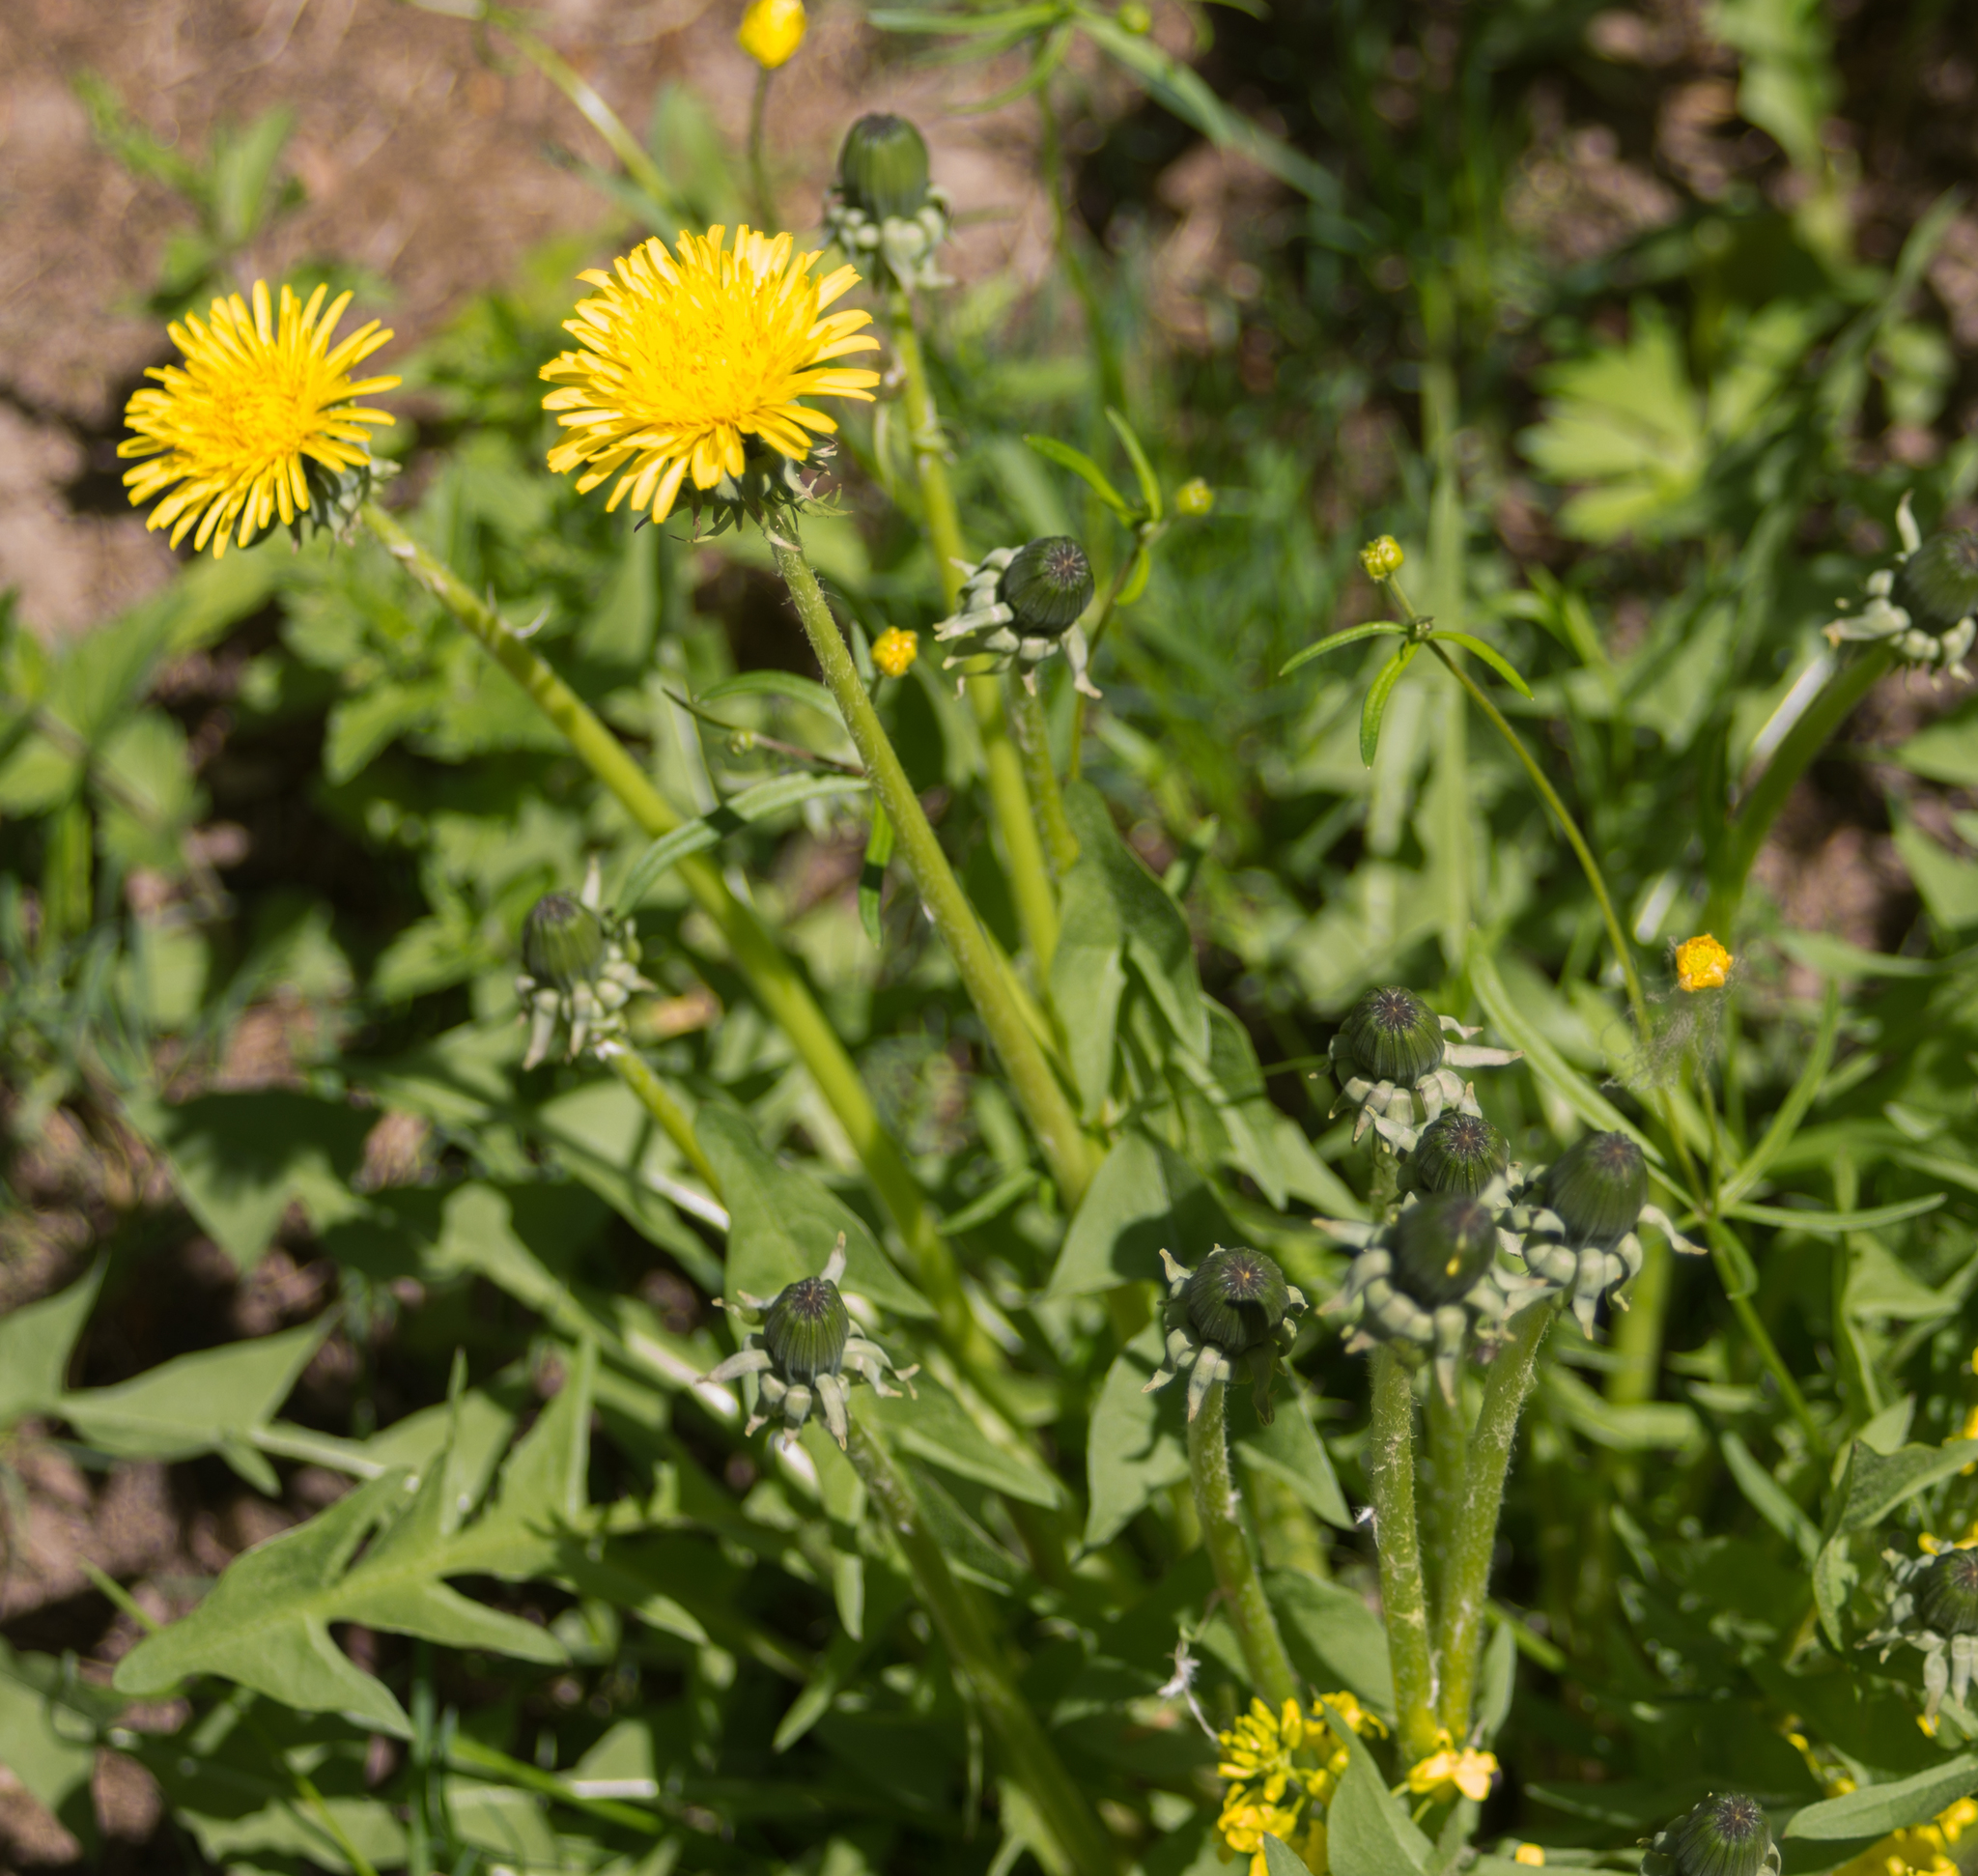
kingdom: Plantae
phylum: Tracheophyta
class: Magnoliopsida
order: Asterales
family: Asteraceae
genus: Taraxacum
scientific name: Taraxacum officinale
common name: Common dandelion
